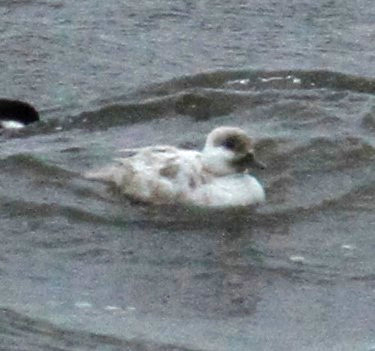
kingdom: Animalia
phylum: Chordata
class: Aves
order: Anseriformes
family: Anatidae
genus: Bucephala
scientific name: Bucephala albeola
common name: Bufflehead
